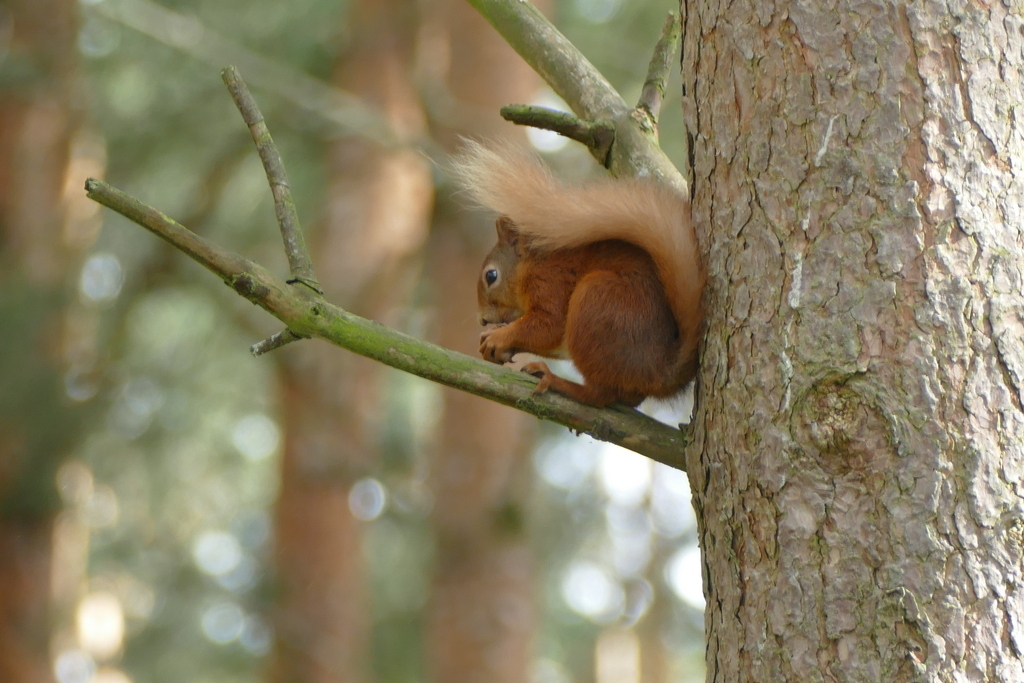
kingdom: Animalia
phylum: Chordata
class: Mammalia
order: Rodentia
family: Sciuridae
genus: Sciurus
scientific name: Sciurus vulgaris
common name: Eurasian red squirrel
